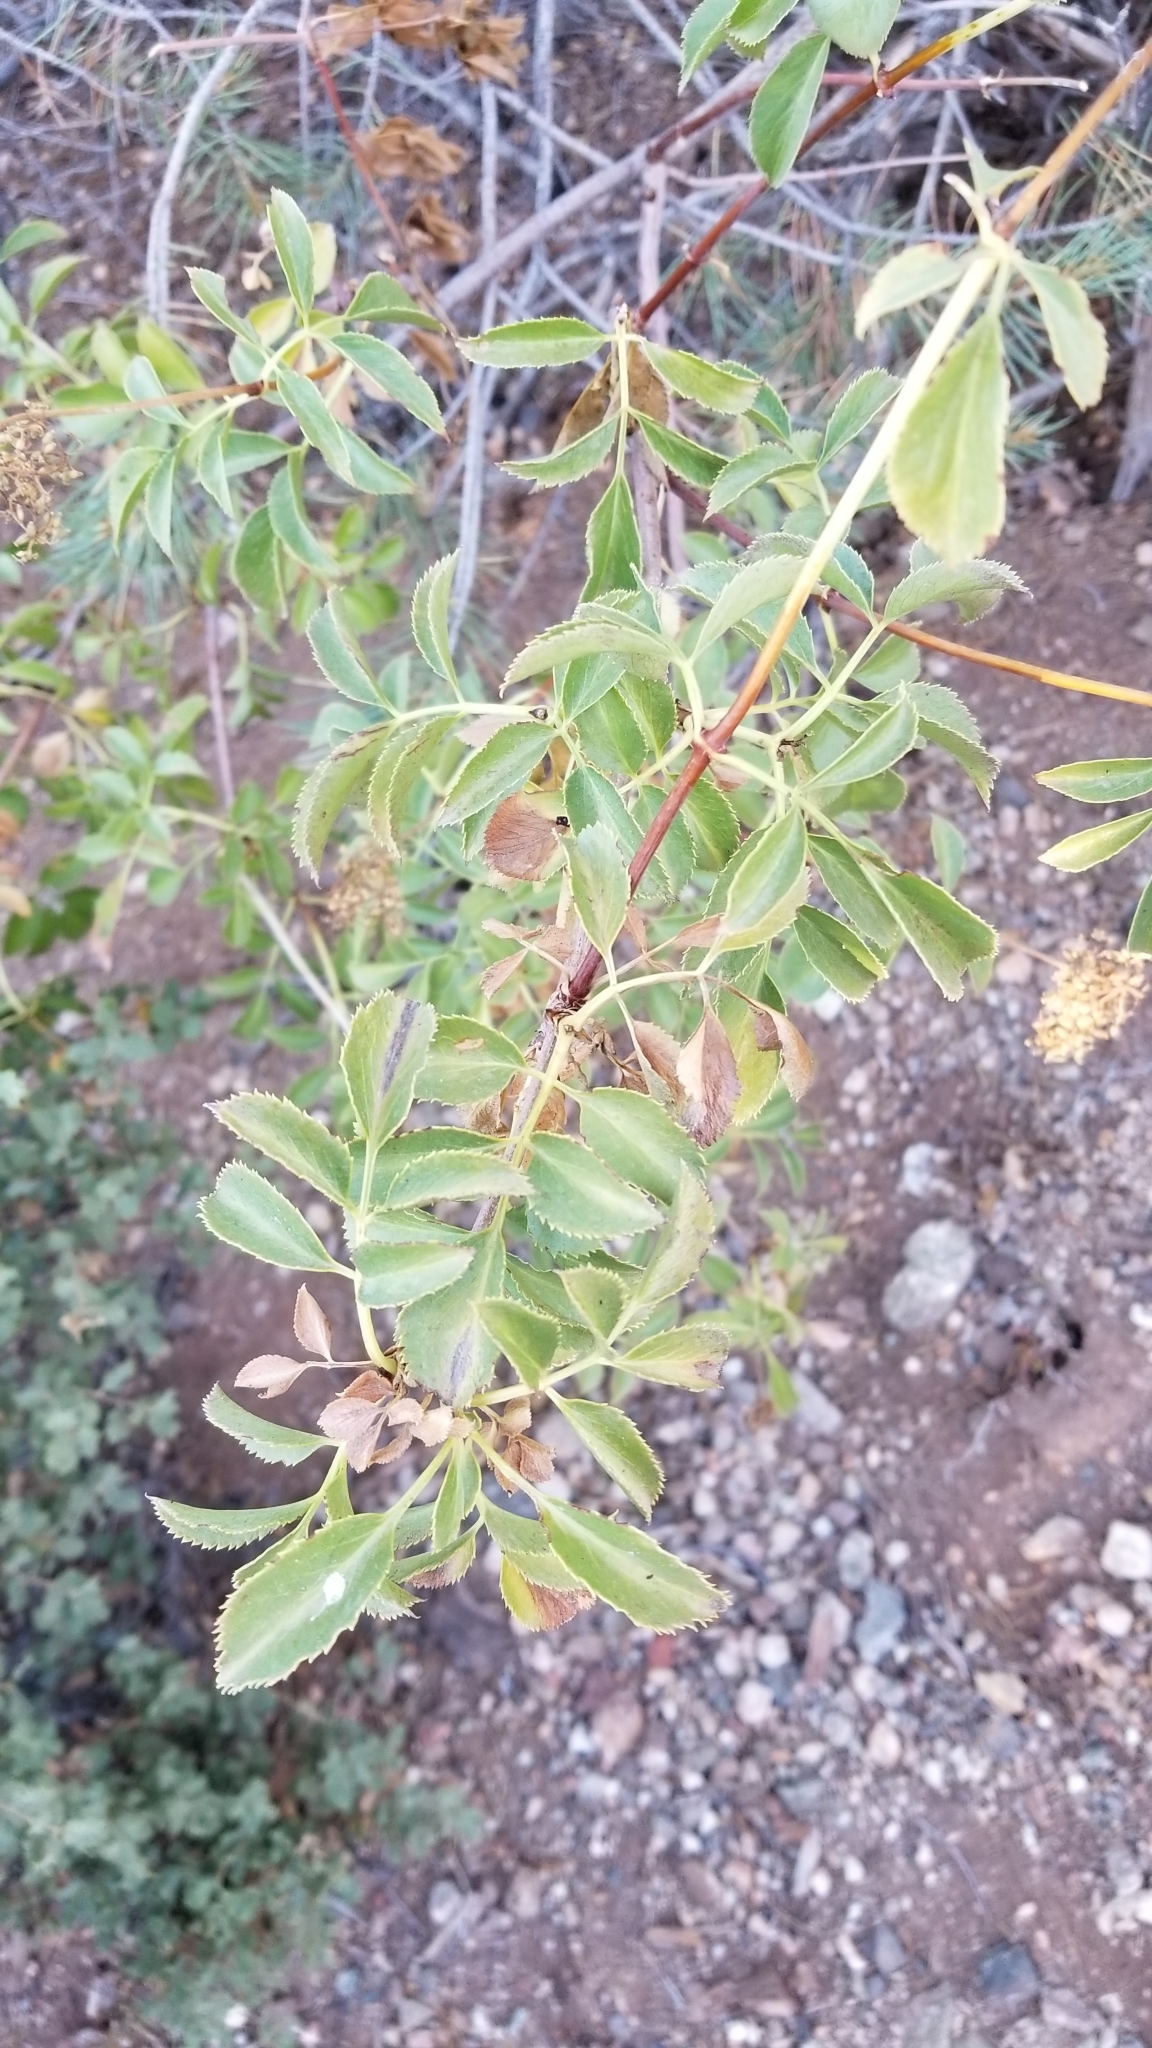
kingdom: Plantae
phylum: Tracheophyta
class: Magnoliopsida
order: Dipsacales
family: Viburnaceae
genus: Sambucus
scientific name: Sambucus cerulea
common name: Blue elder
